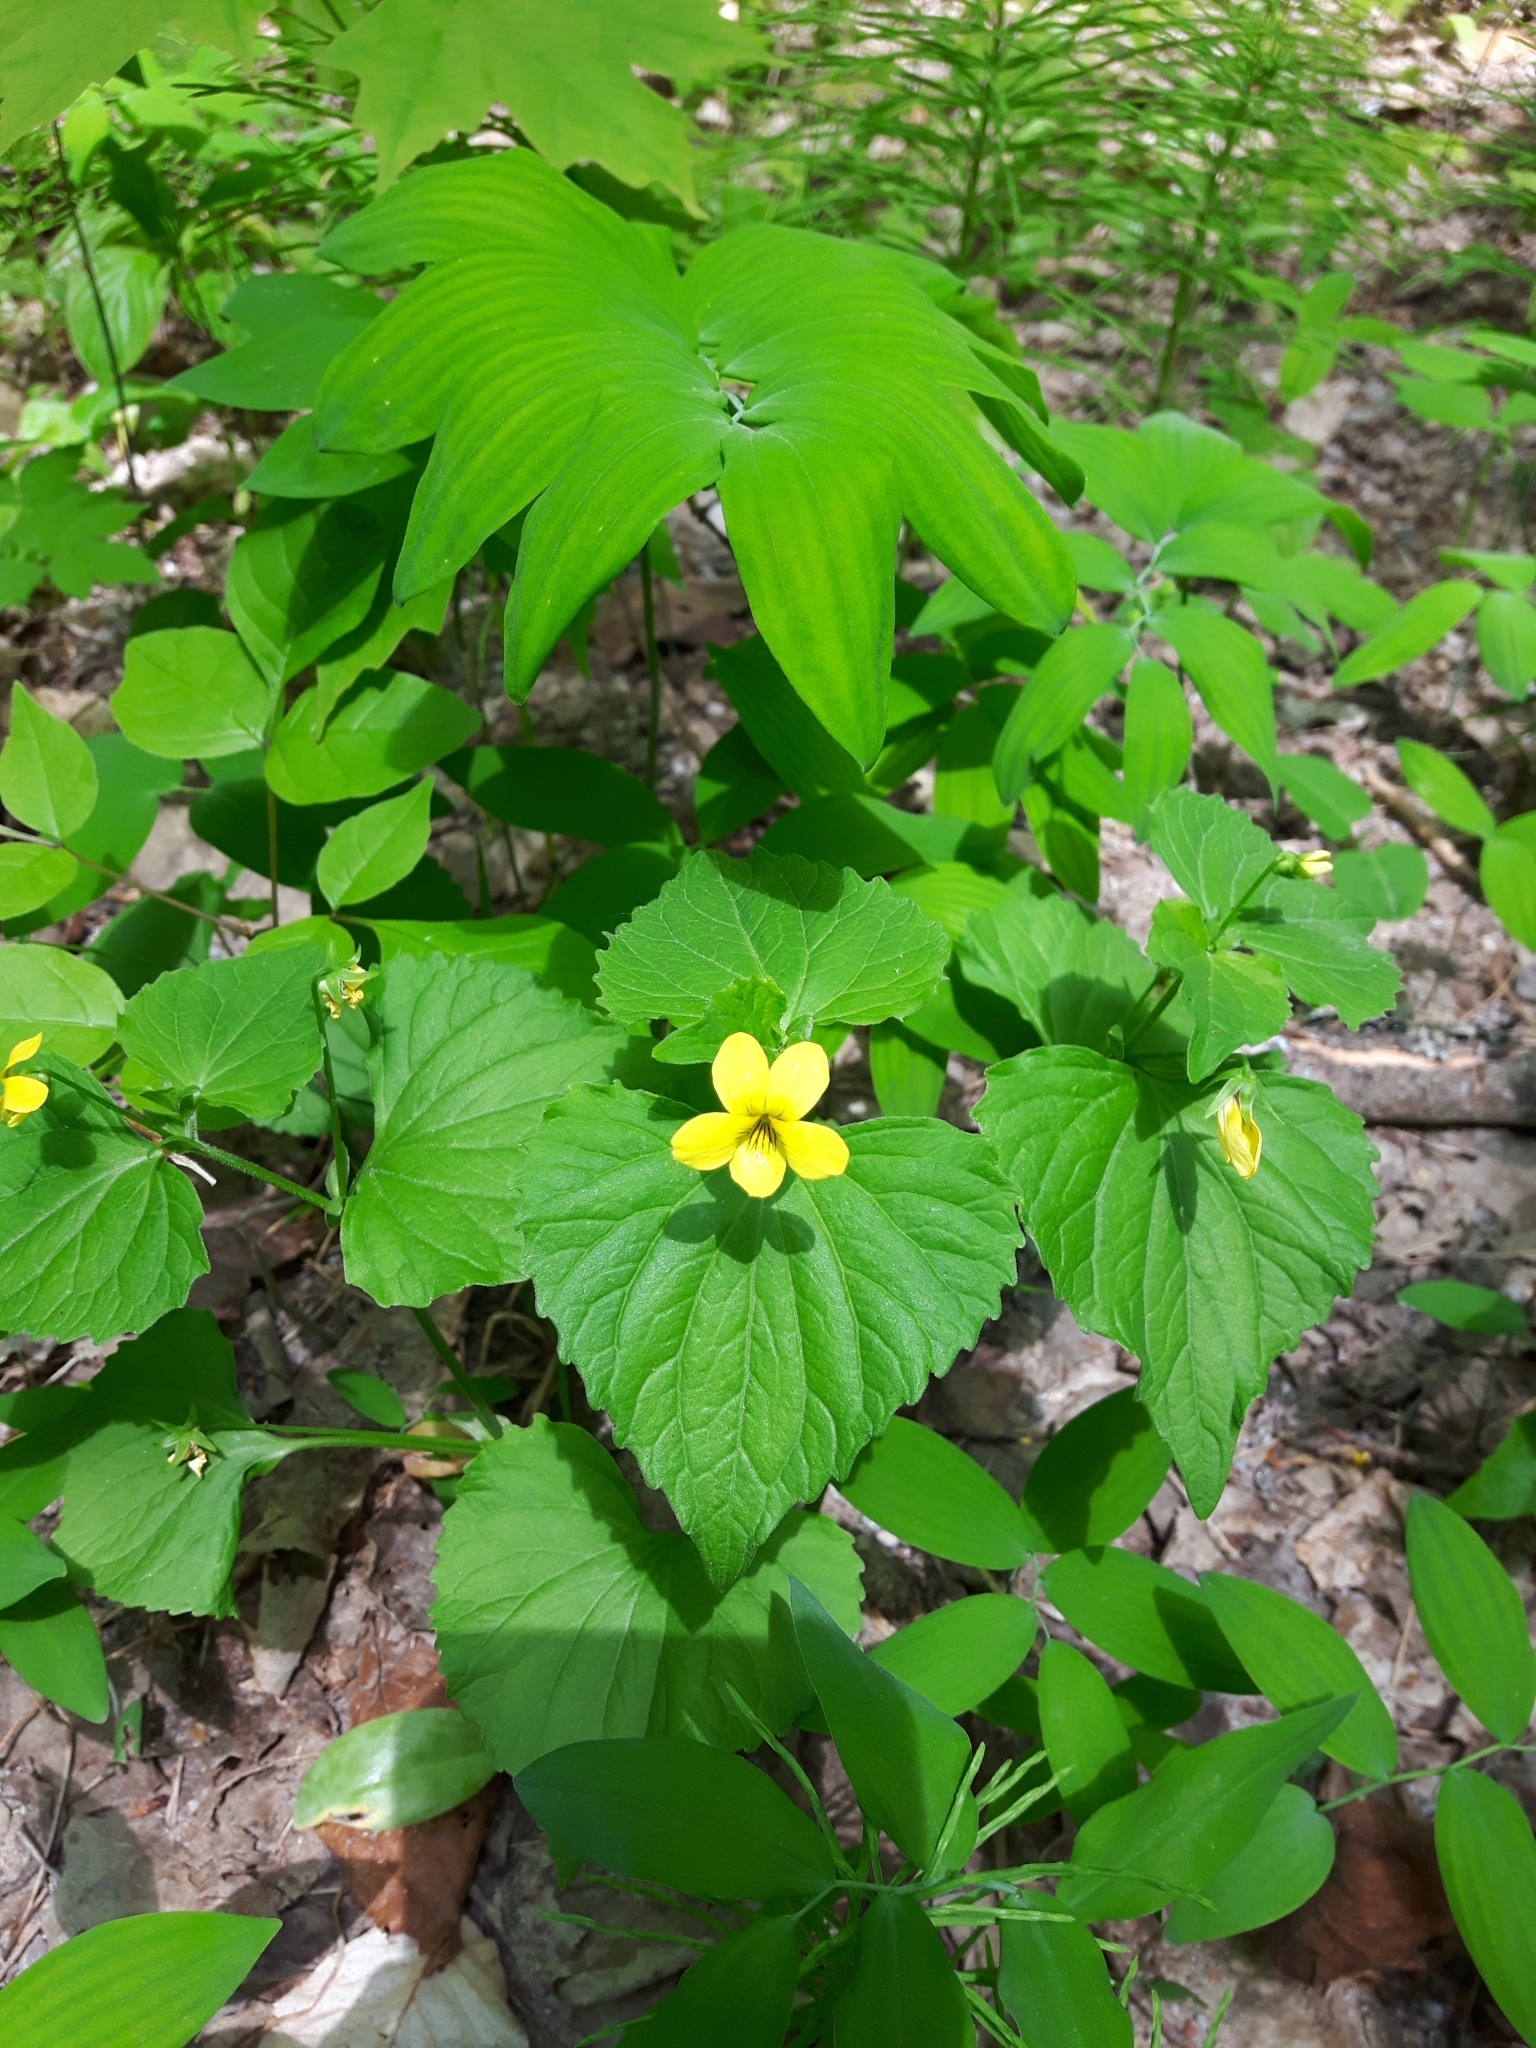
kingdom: Plantae
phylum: Tracheophyta
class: Magnoliopsida
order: Malpighiales
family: Violaceae
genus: Viola
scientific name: Viola eriocarpa
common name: Smooth yellow violet
